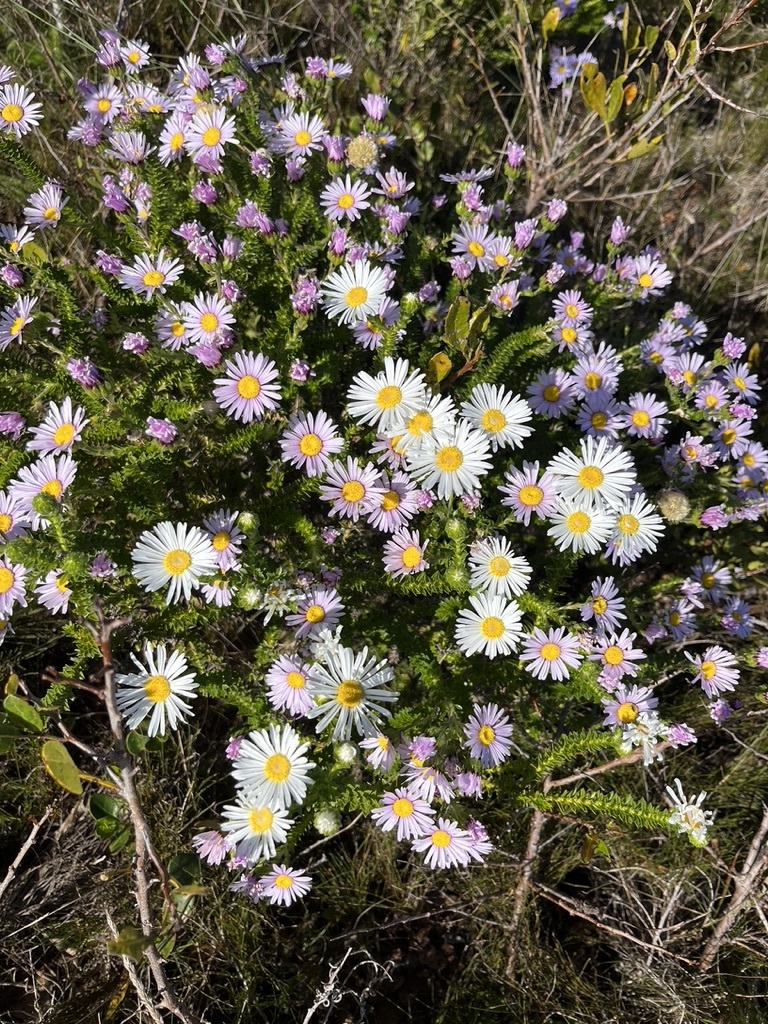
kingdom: Plantae
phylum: Tracheophyta
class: Magnoliopsida
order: Asterales
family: Asteraceae
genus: Felicia
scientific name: Felicia echinata
